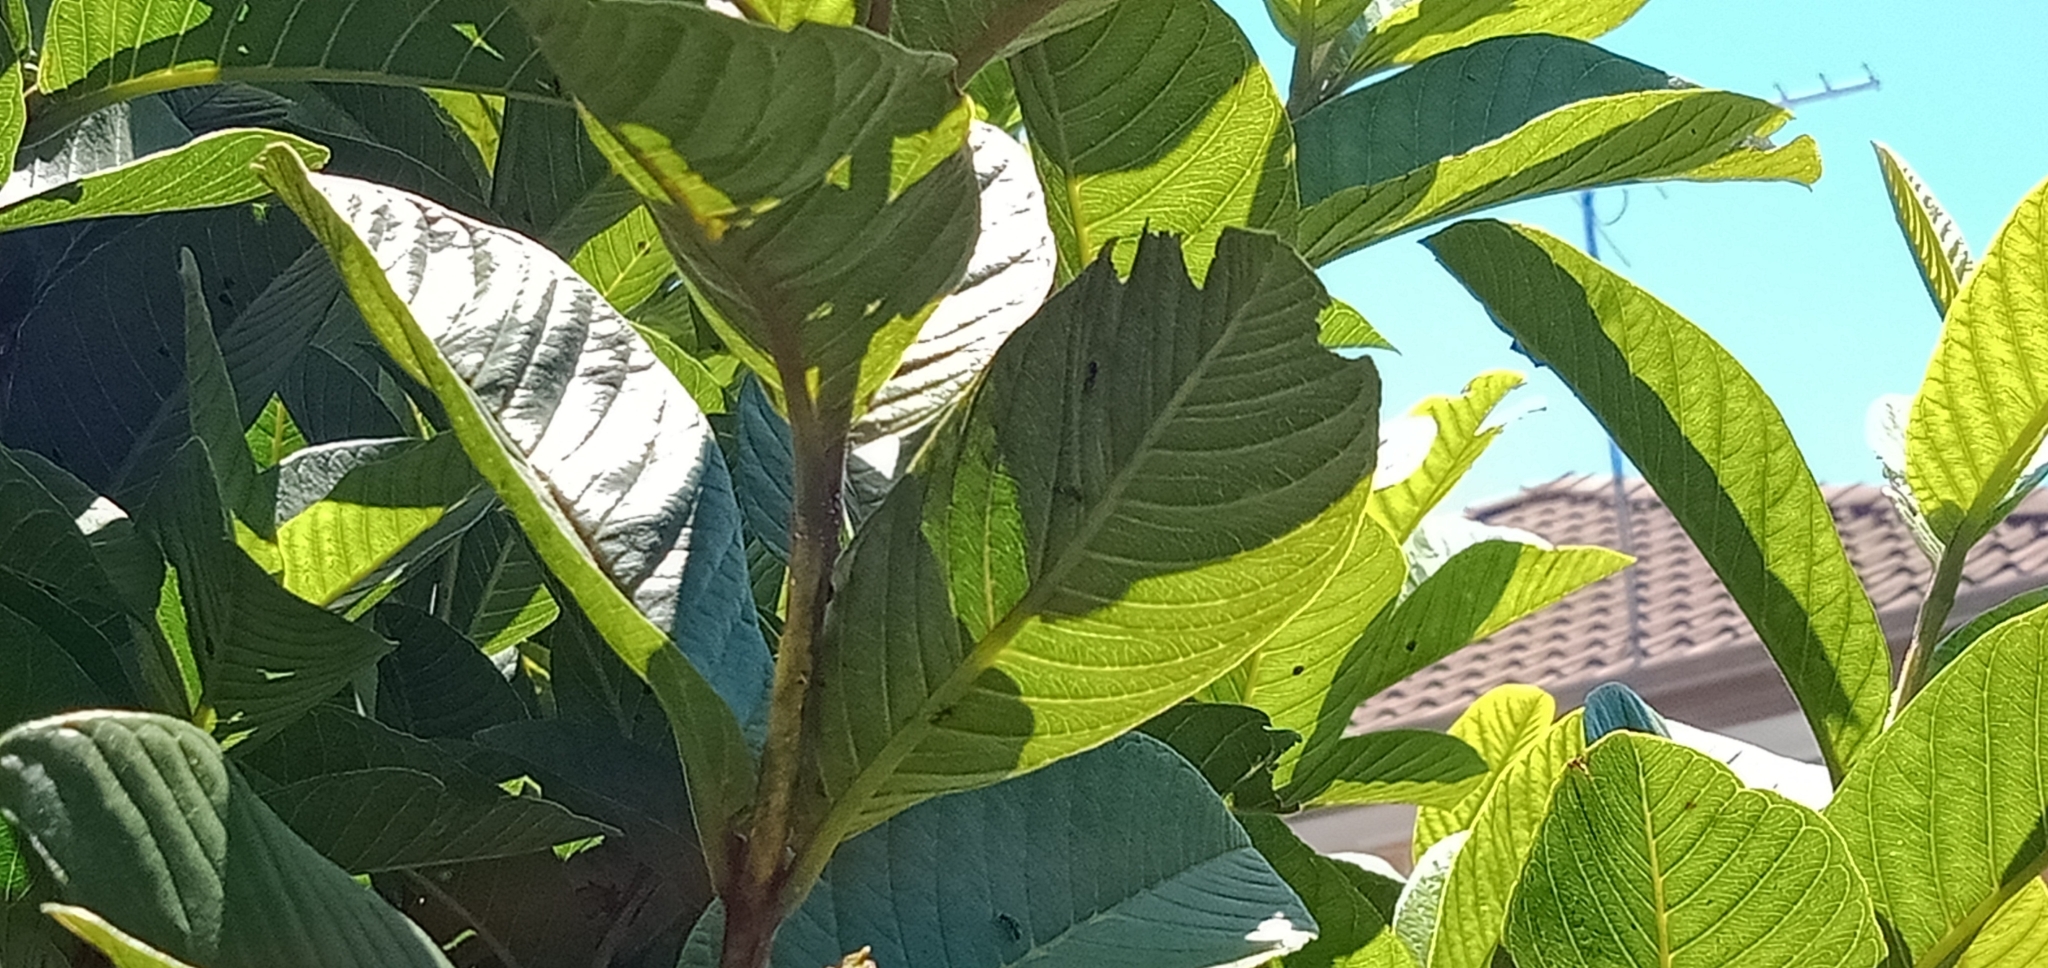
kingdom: Animalia
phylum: Arthropoda
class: Insecta
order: Hemiptera
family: Tessaratomidae
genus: Musgraveia
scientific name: Musgraveia sulciventris
